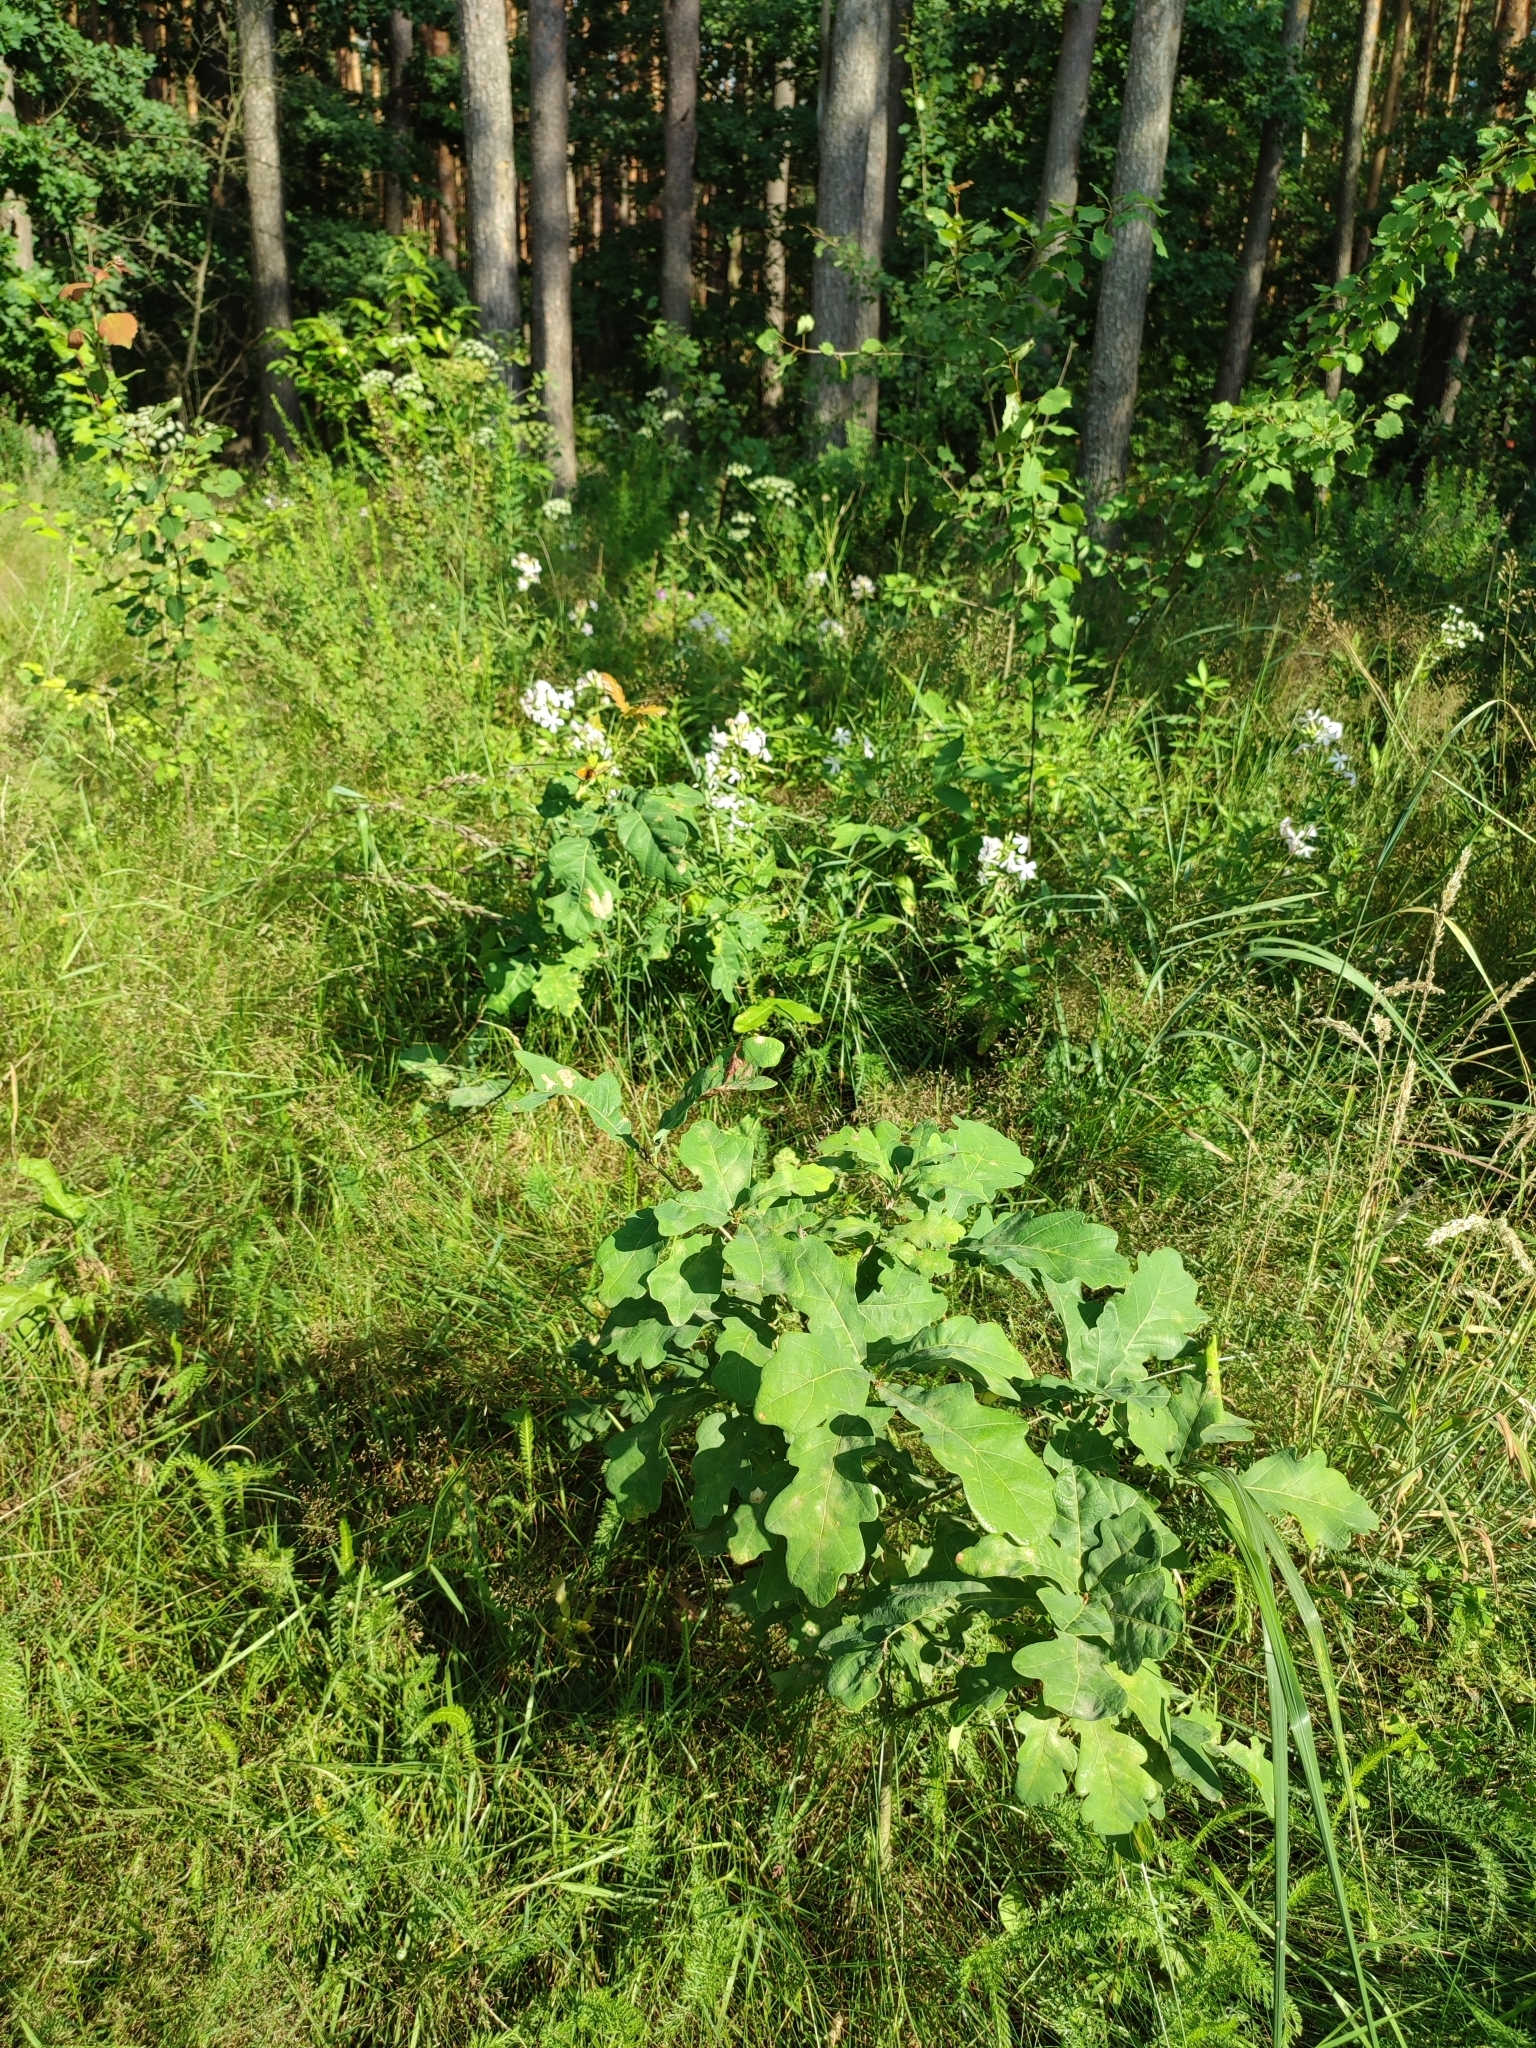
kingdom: Plantae
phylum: Tracheophyta
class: Magnoliopsida
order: Fagales
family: Fagaceae
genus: Quercus
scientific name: Quercus robur
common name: Pedunculate oak
